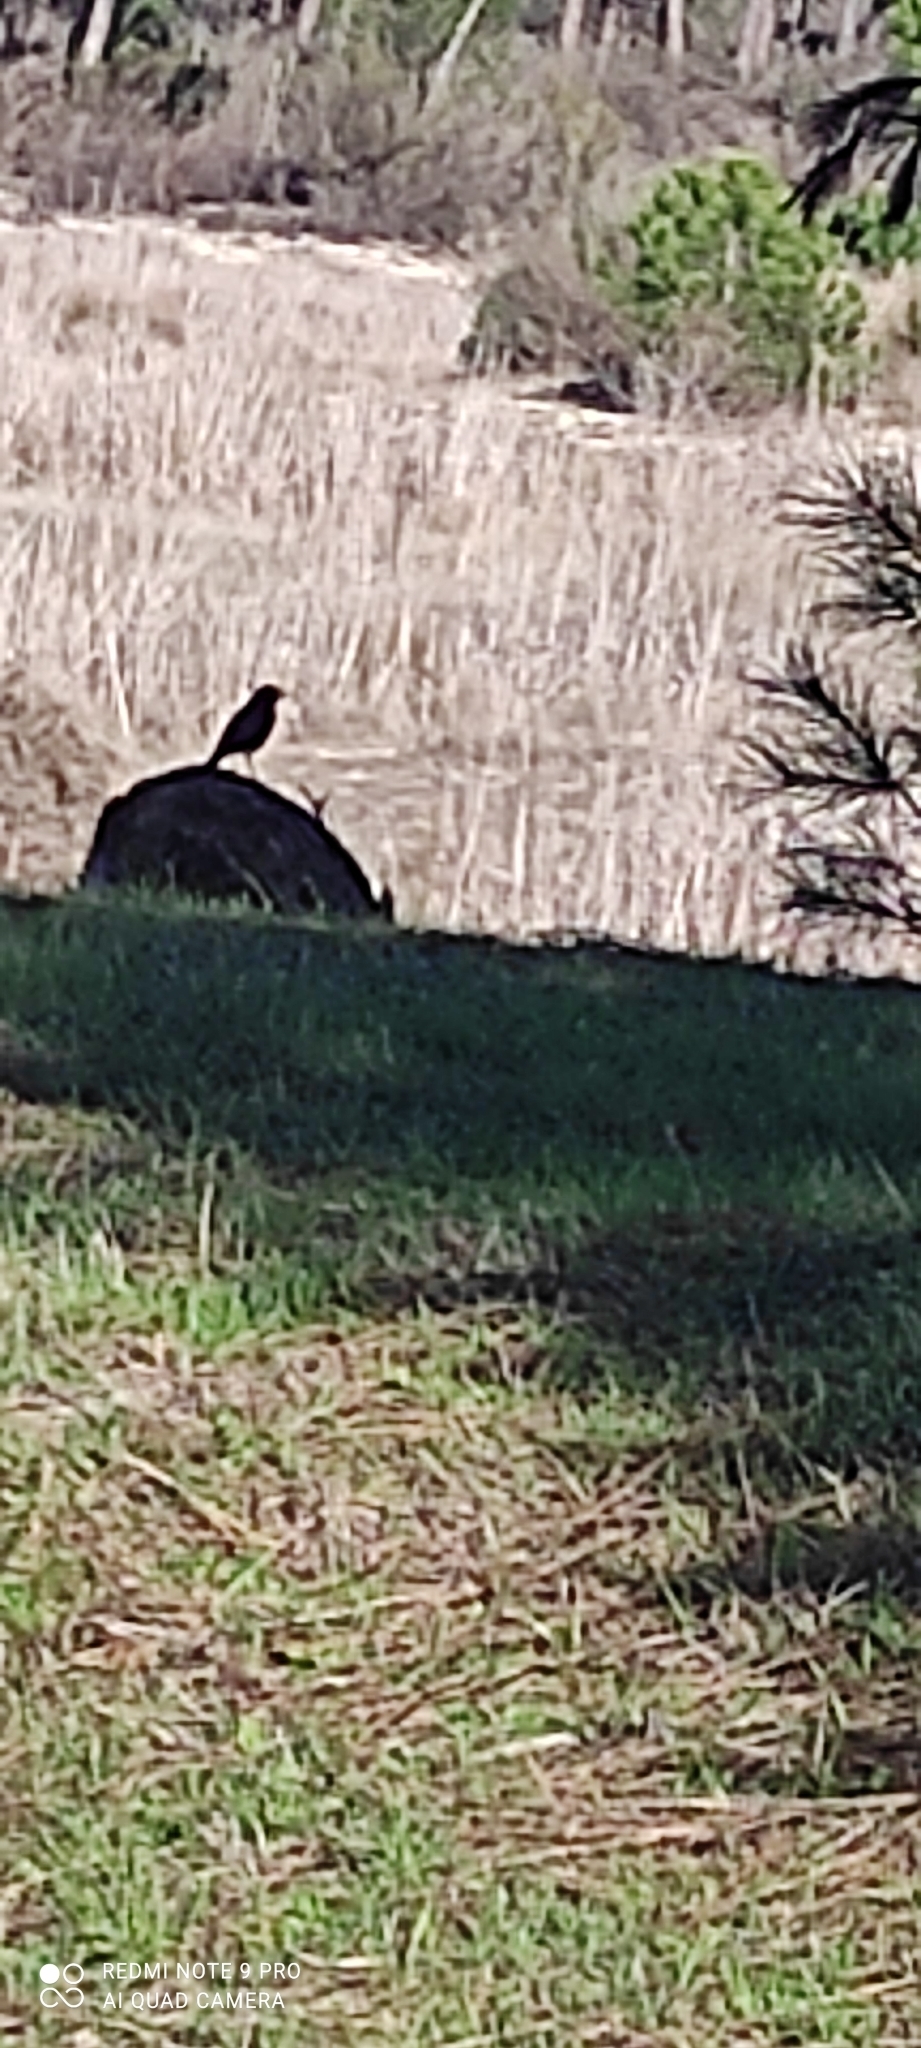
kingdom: Animalia
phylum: Chordata
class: Aves
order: Passeriformes
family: Muscicapidae
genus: Phoenicurus
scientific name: Phoenicurus ochruros
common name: Black redstart
